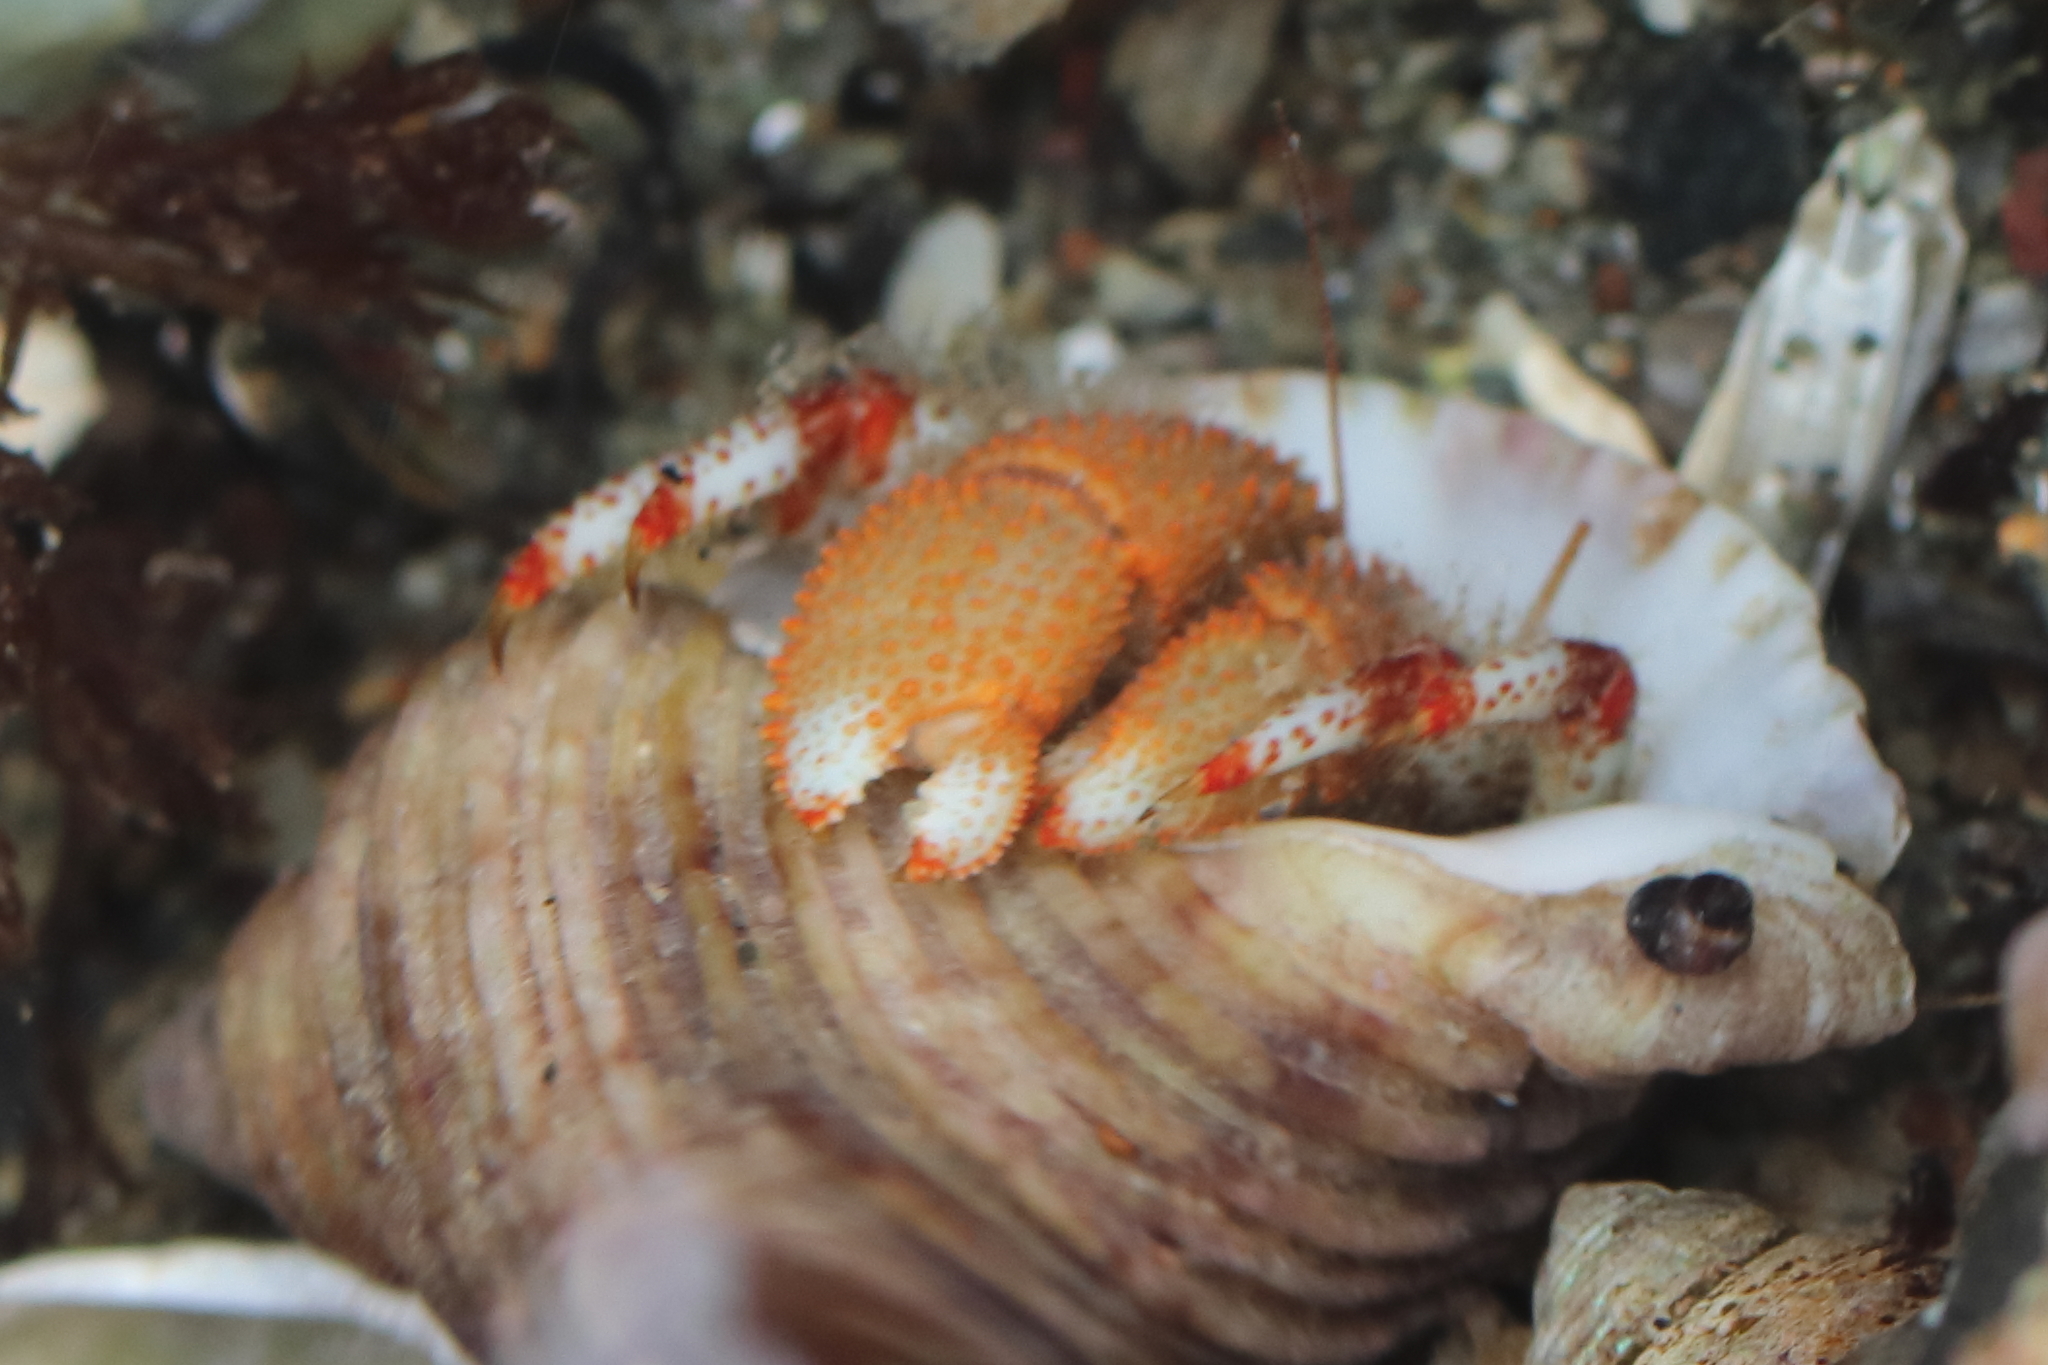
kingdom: Animalia
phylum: Arthropoda
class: Malacostraca
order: Decapoda
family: Paguridae
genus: Pagurus
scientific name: Pagurus beringanus
